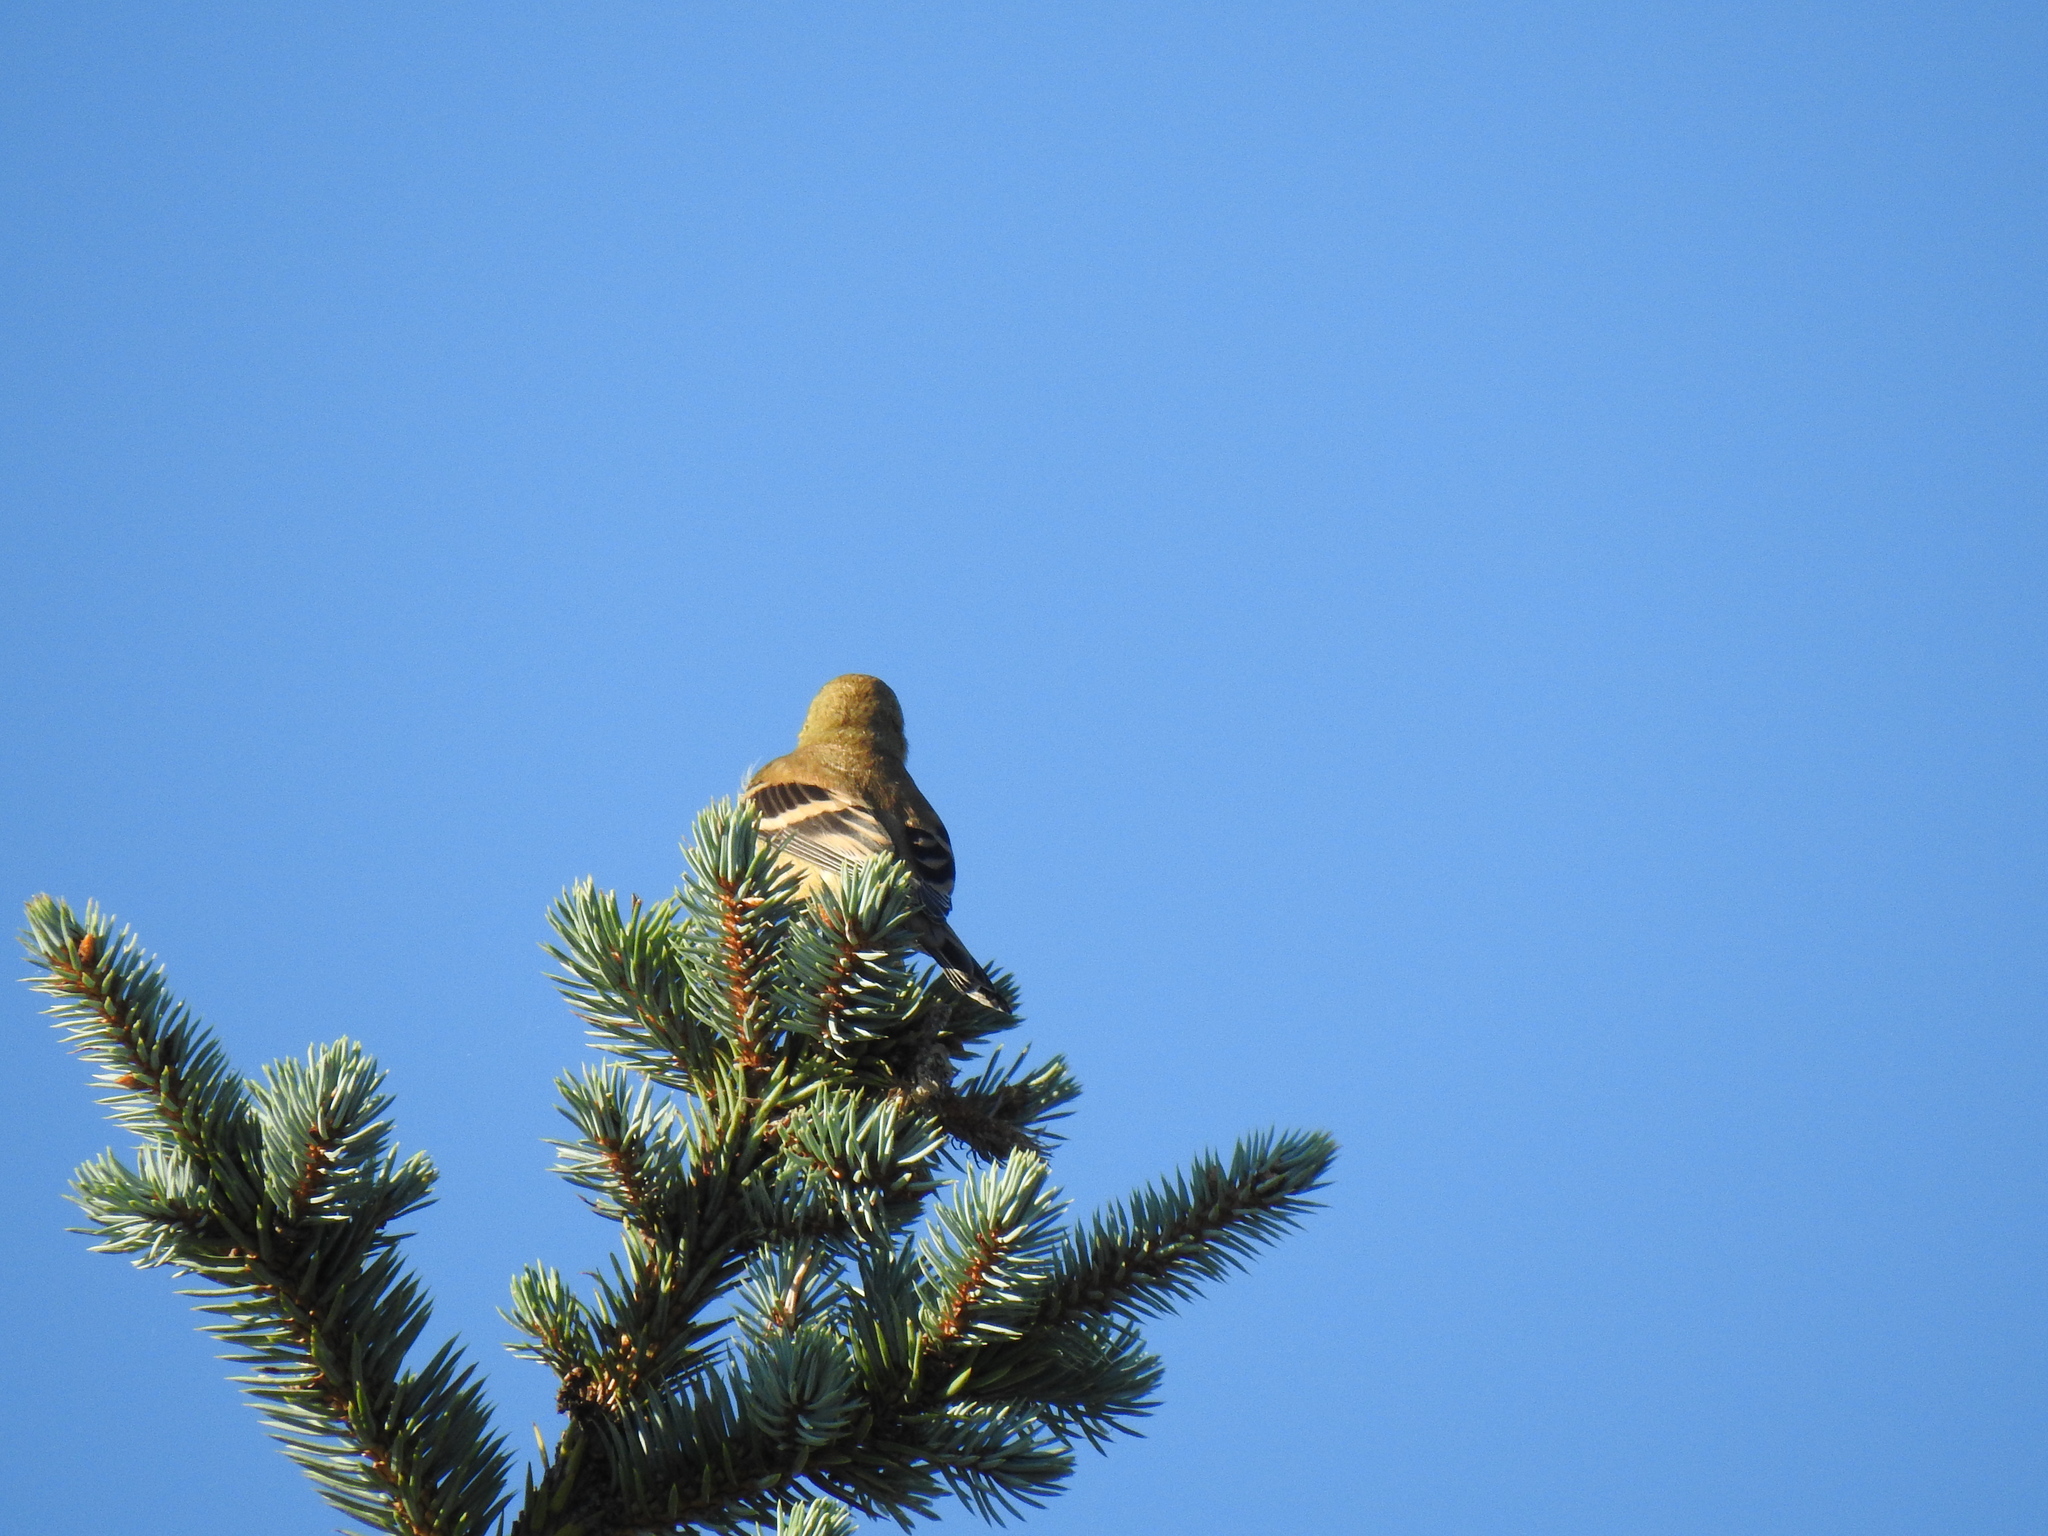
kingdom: Animalia
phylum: Chordata
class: Aves
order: Passeriformes
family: Fringillidae
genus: Spinus
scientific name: Spinus tristis
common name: American goldfinch
